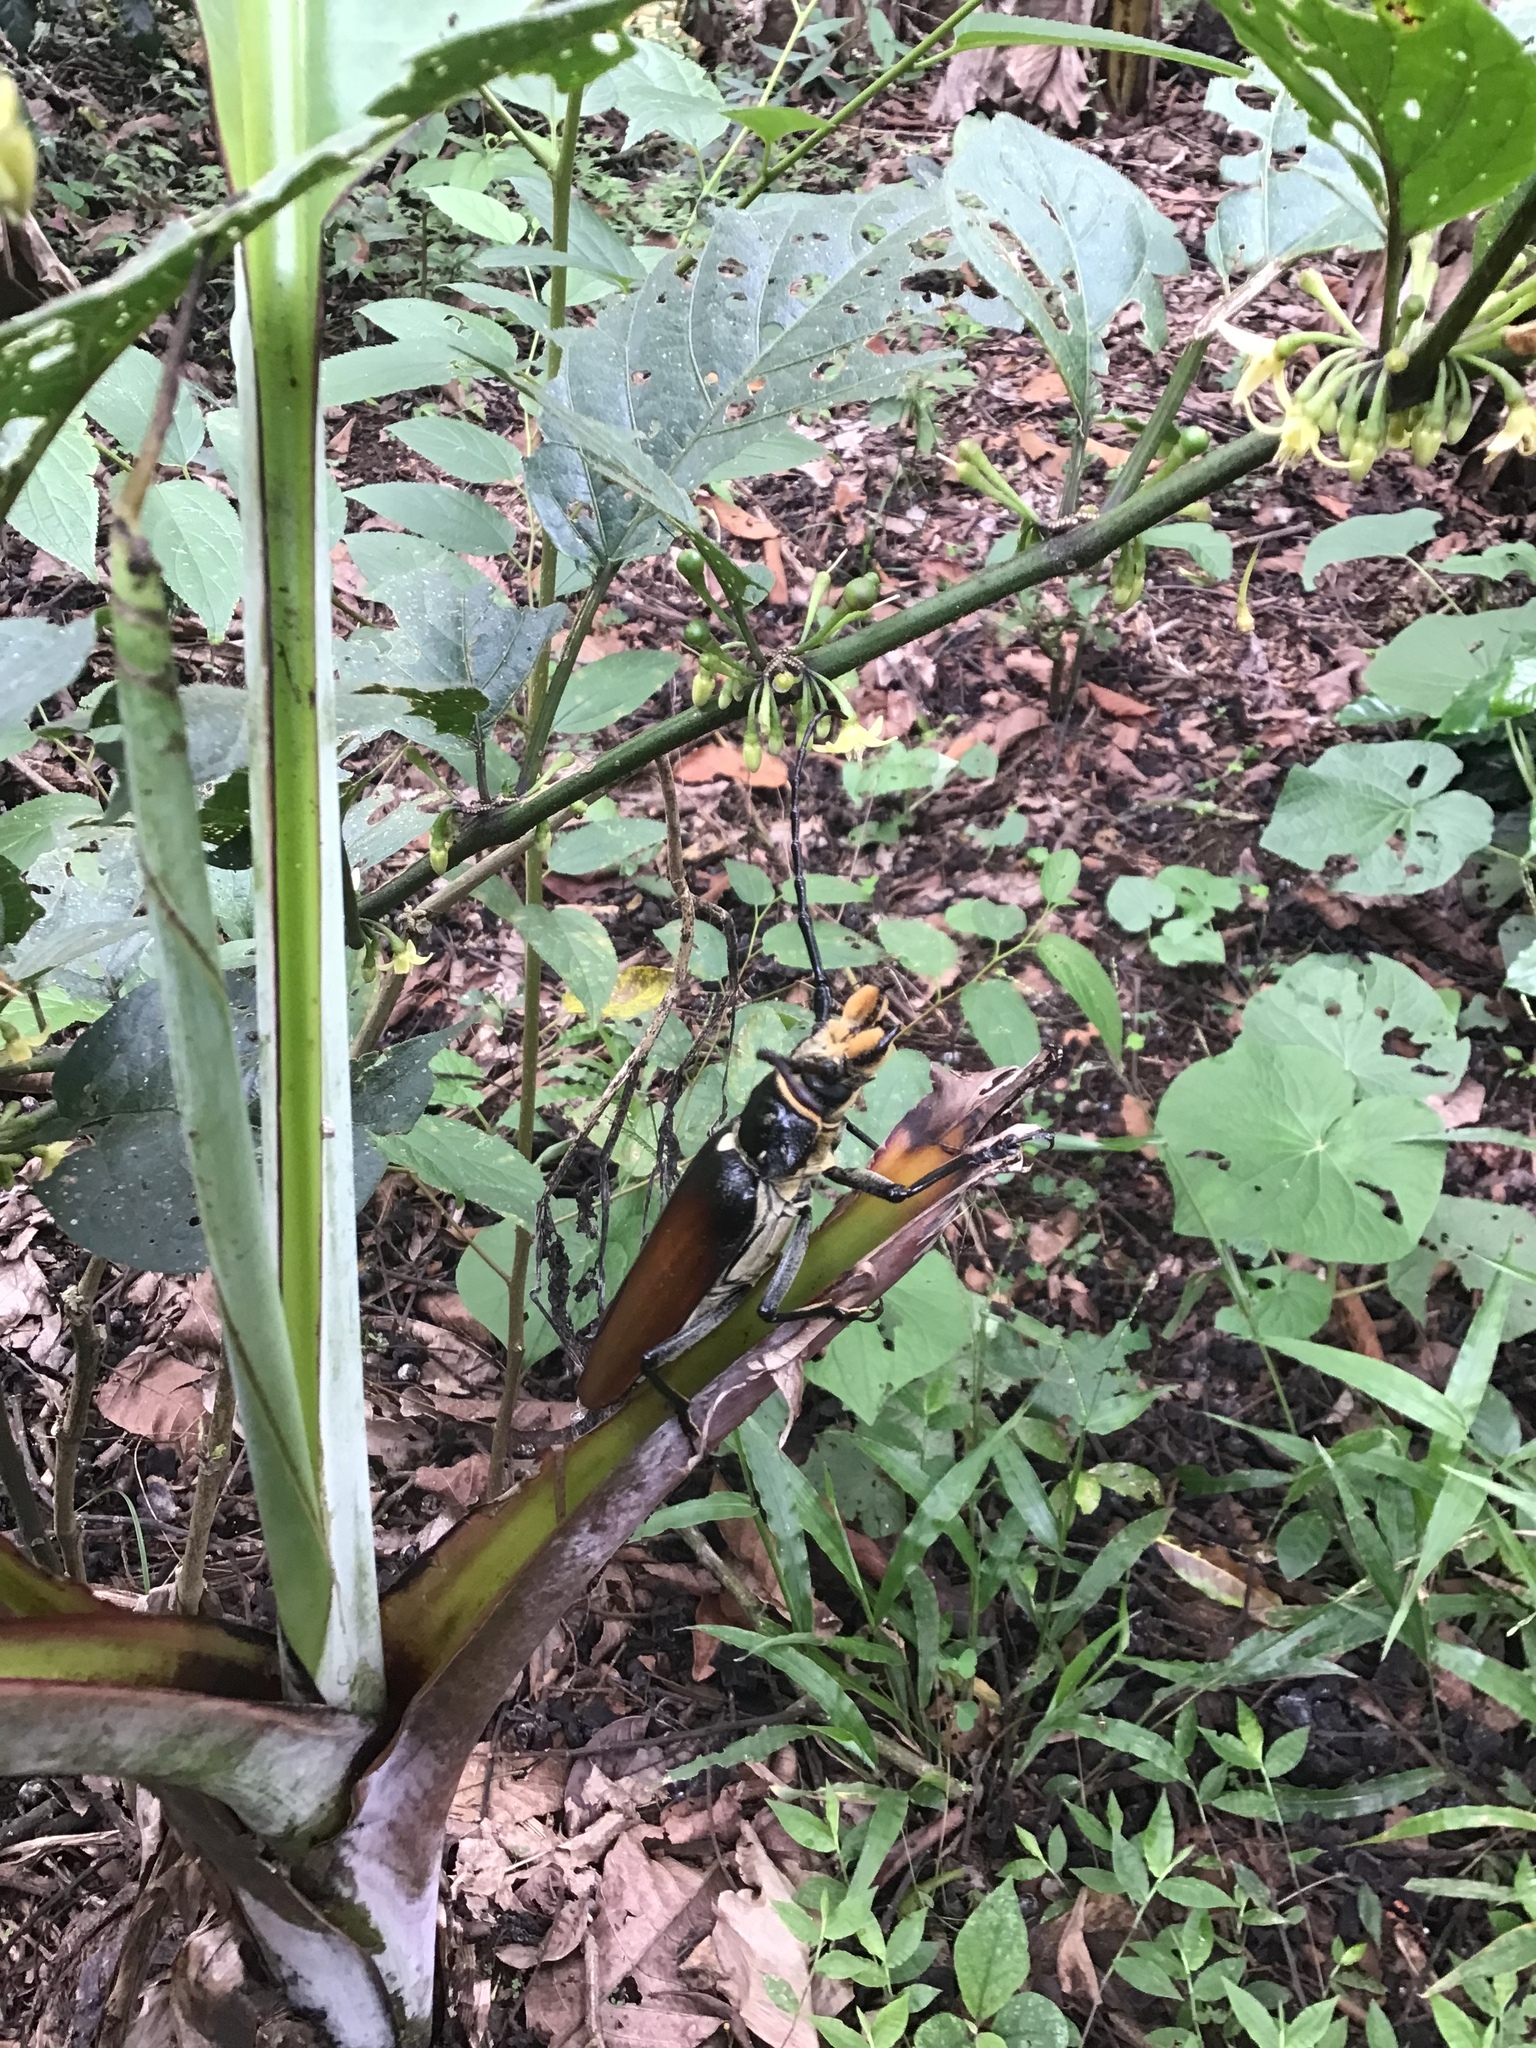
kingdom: Animalia
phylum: Arthropoda
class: Insecta
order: Coleoptera
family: Cerambycidae
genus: Callipogon
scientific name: Callipogon senex
